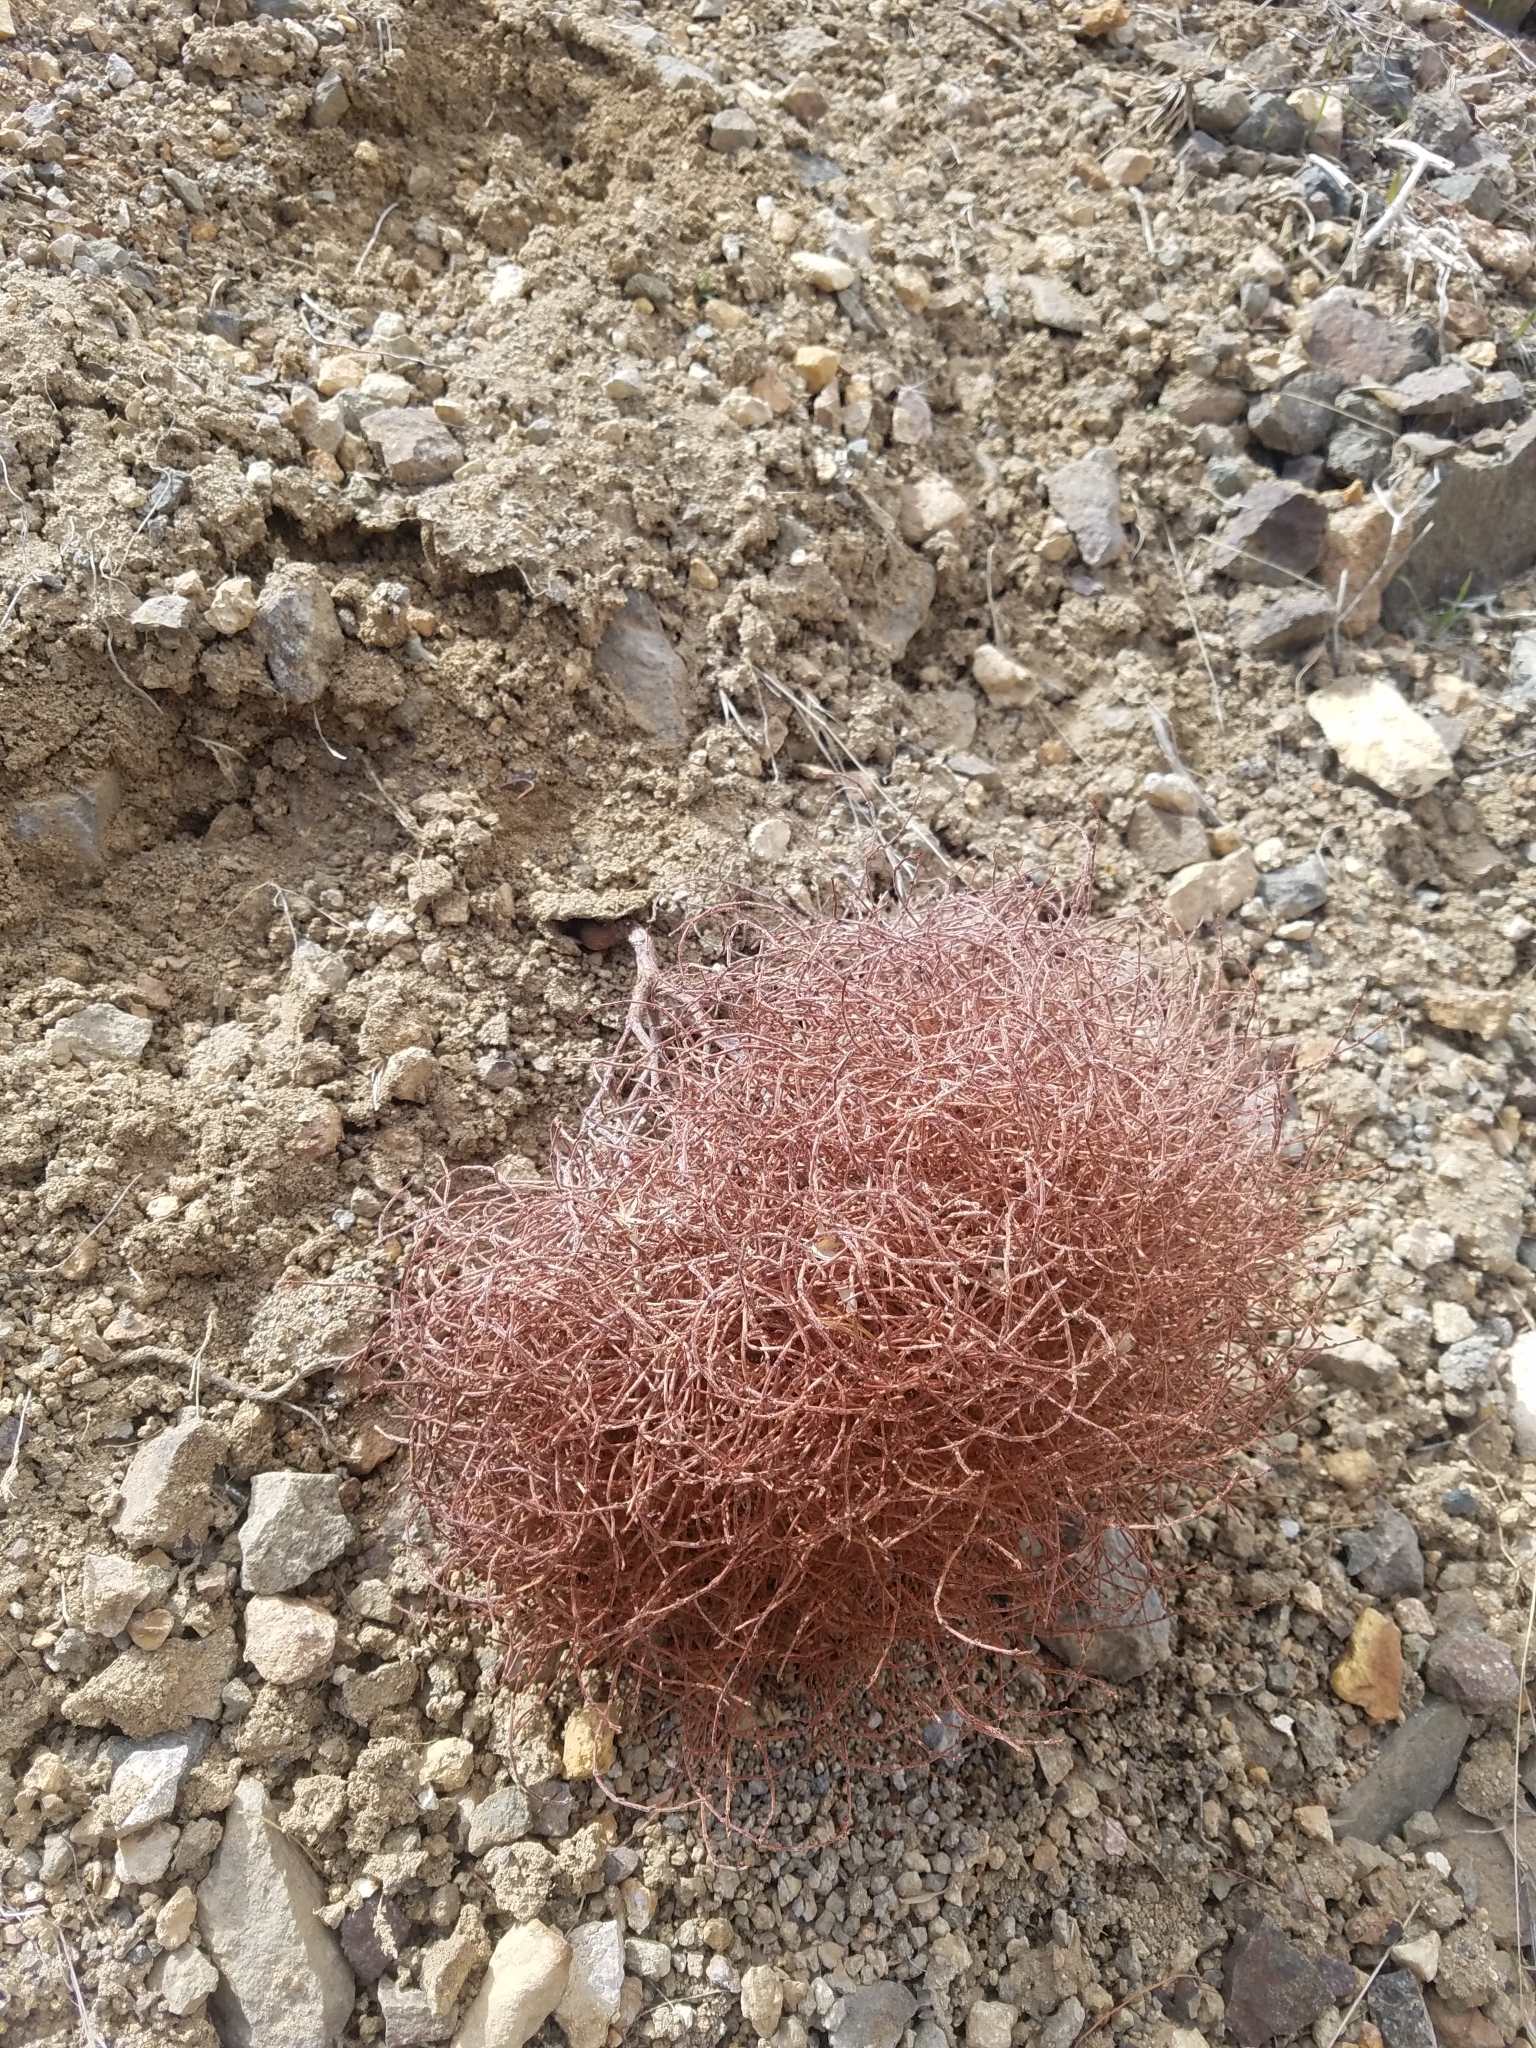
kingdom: Plantae
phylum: Tracheophyta
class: Magnoliopsida
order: Caryophyllales
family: Polygonaceae
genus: Eriogonum
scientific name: Eriogonum nidularium
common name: Bird's-nest wild buckwheat
